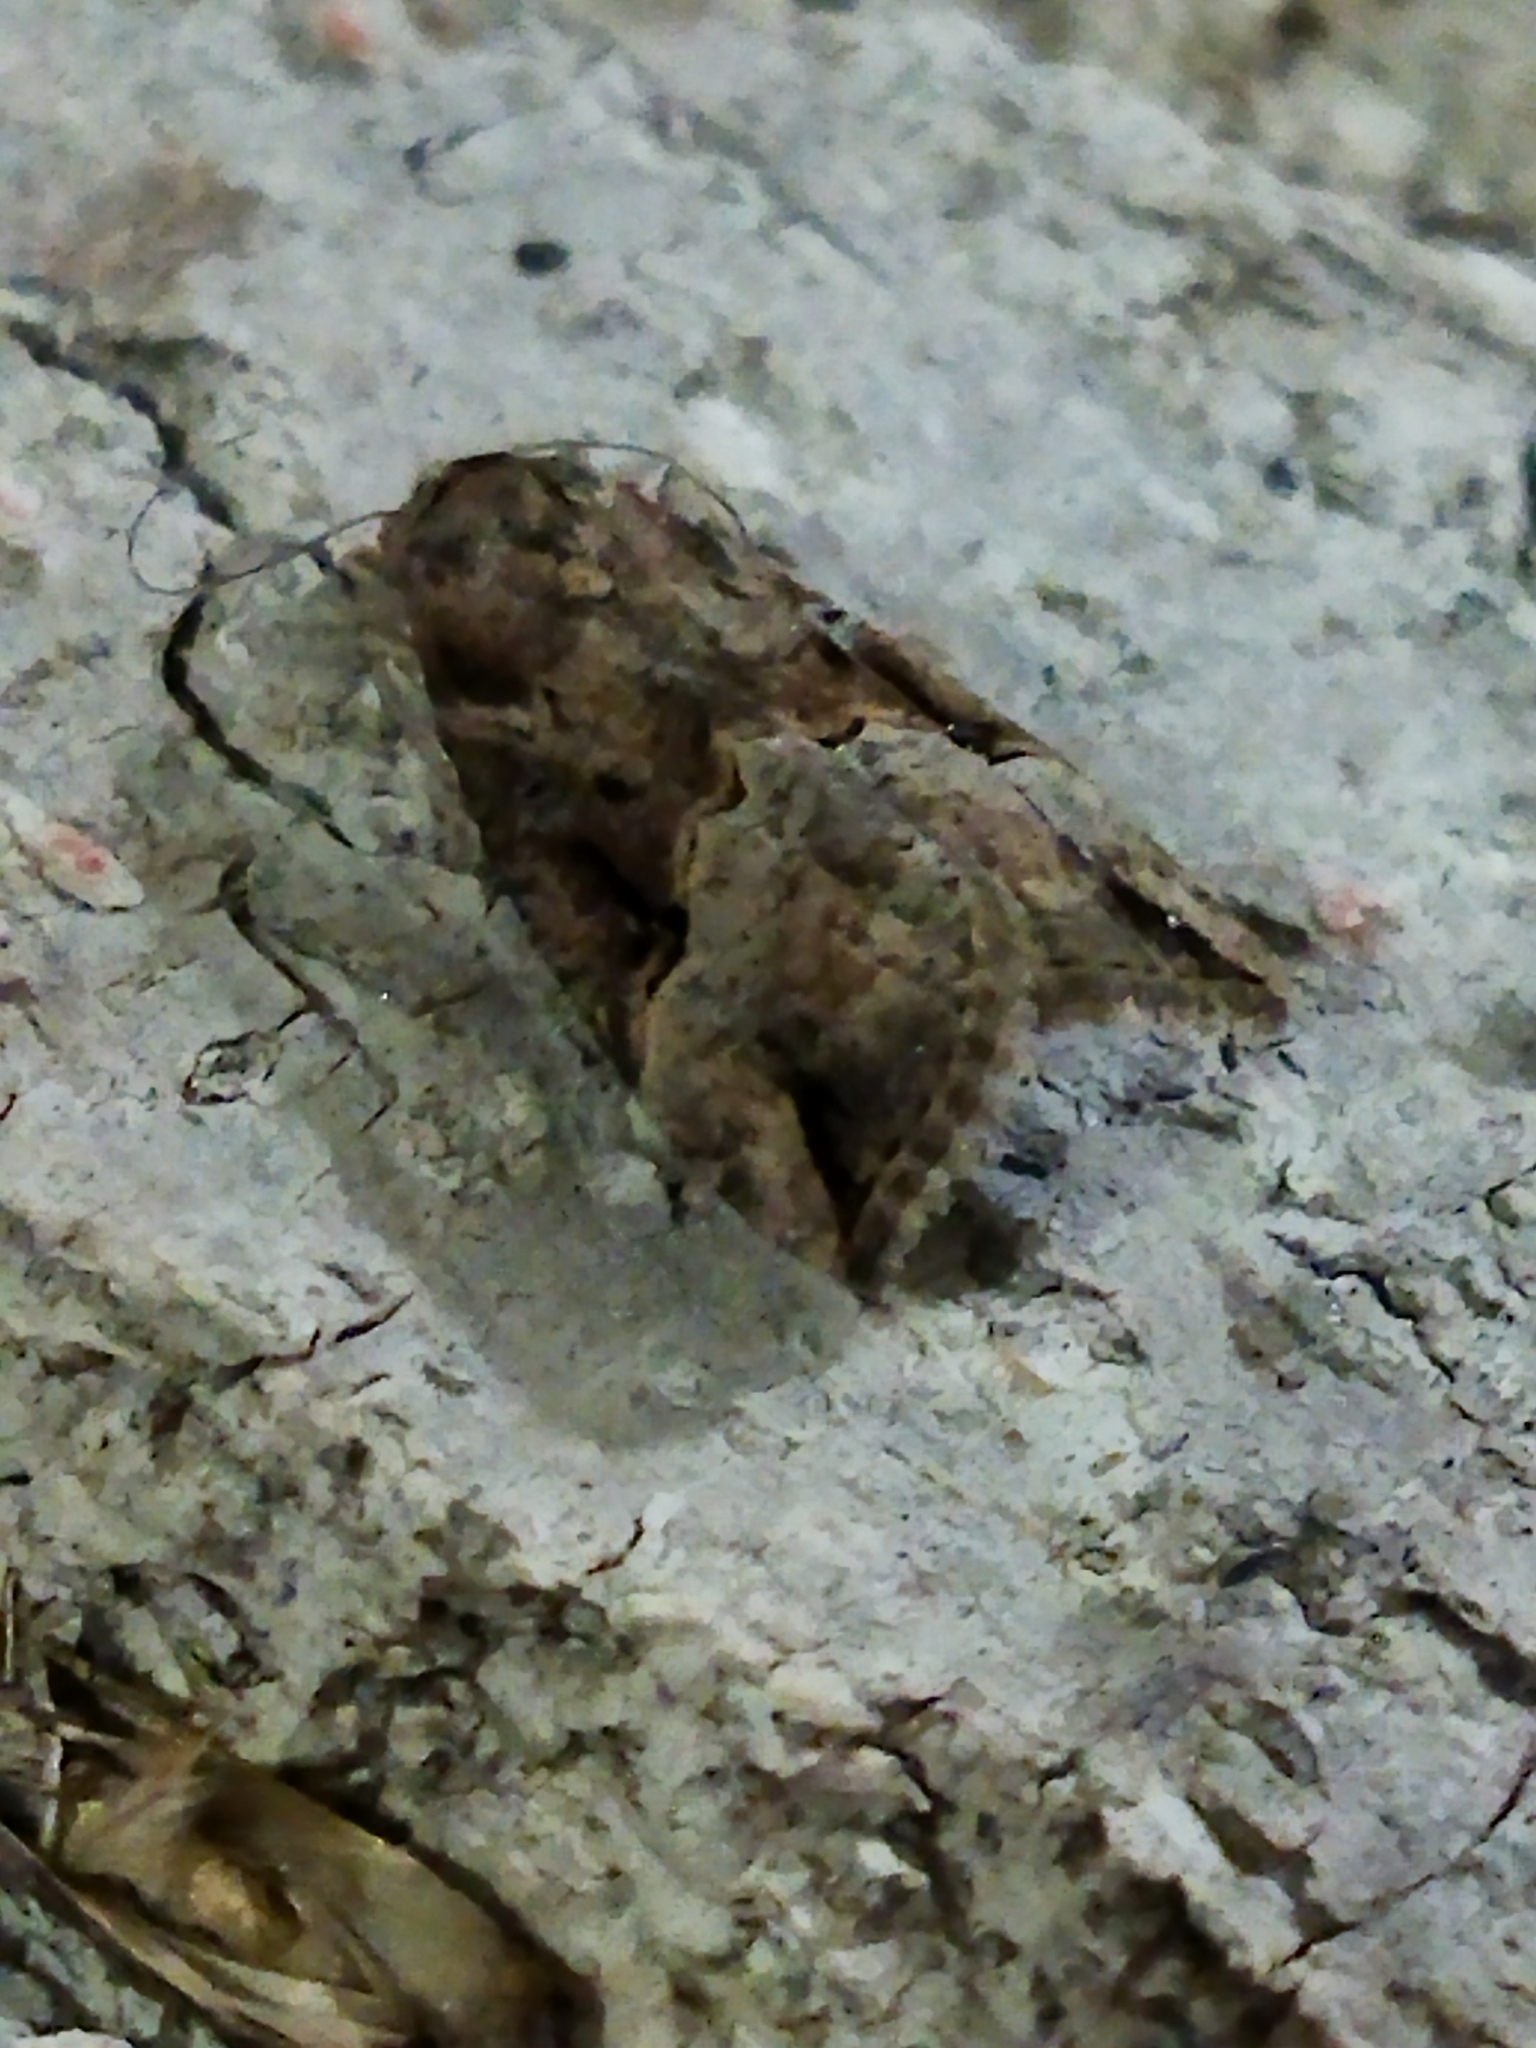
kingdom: Animalia
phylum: Arthropoda
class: Insecta
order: Lepidoptera
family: Erebidae
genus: Hypena
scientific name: Hypena rostralis
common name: Buttoned snout
